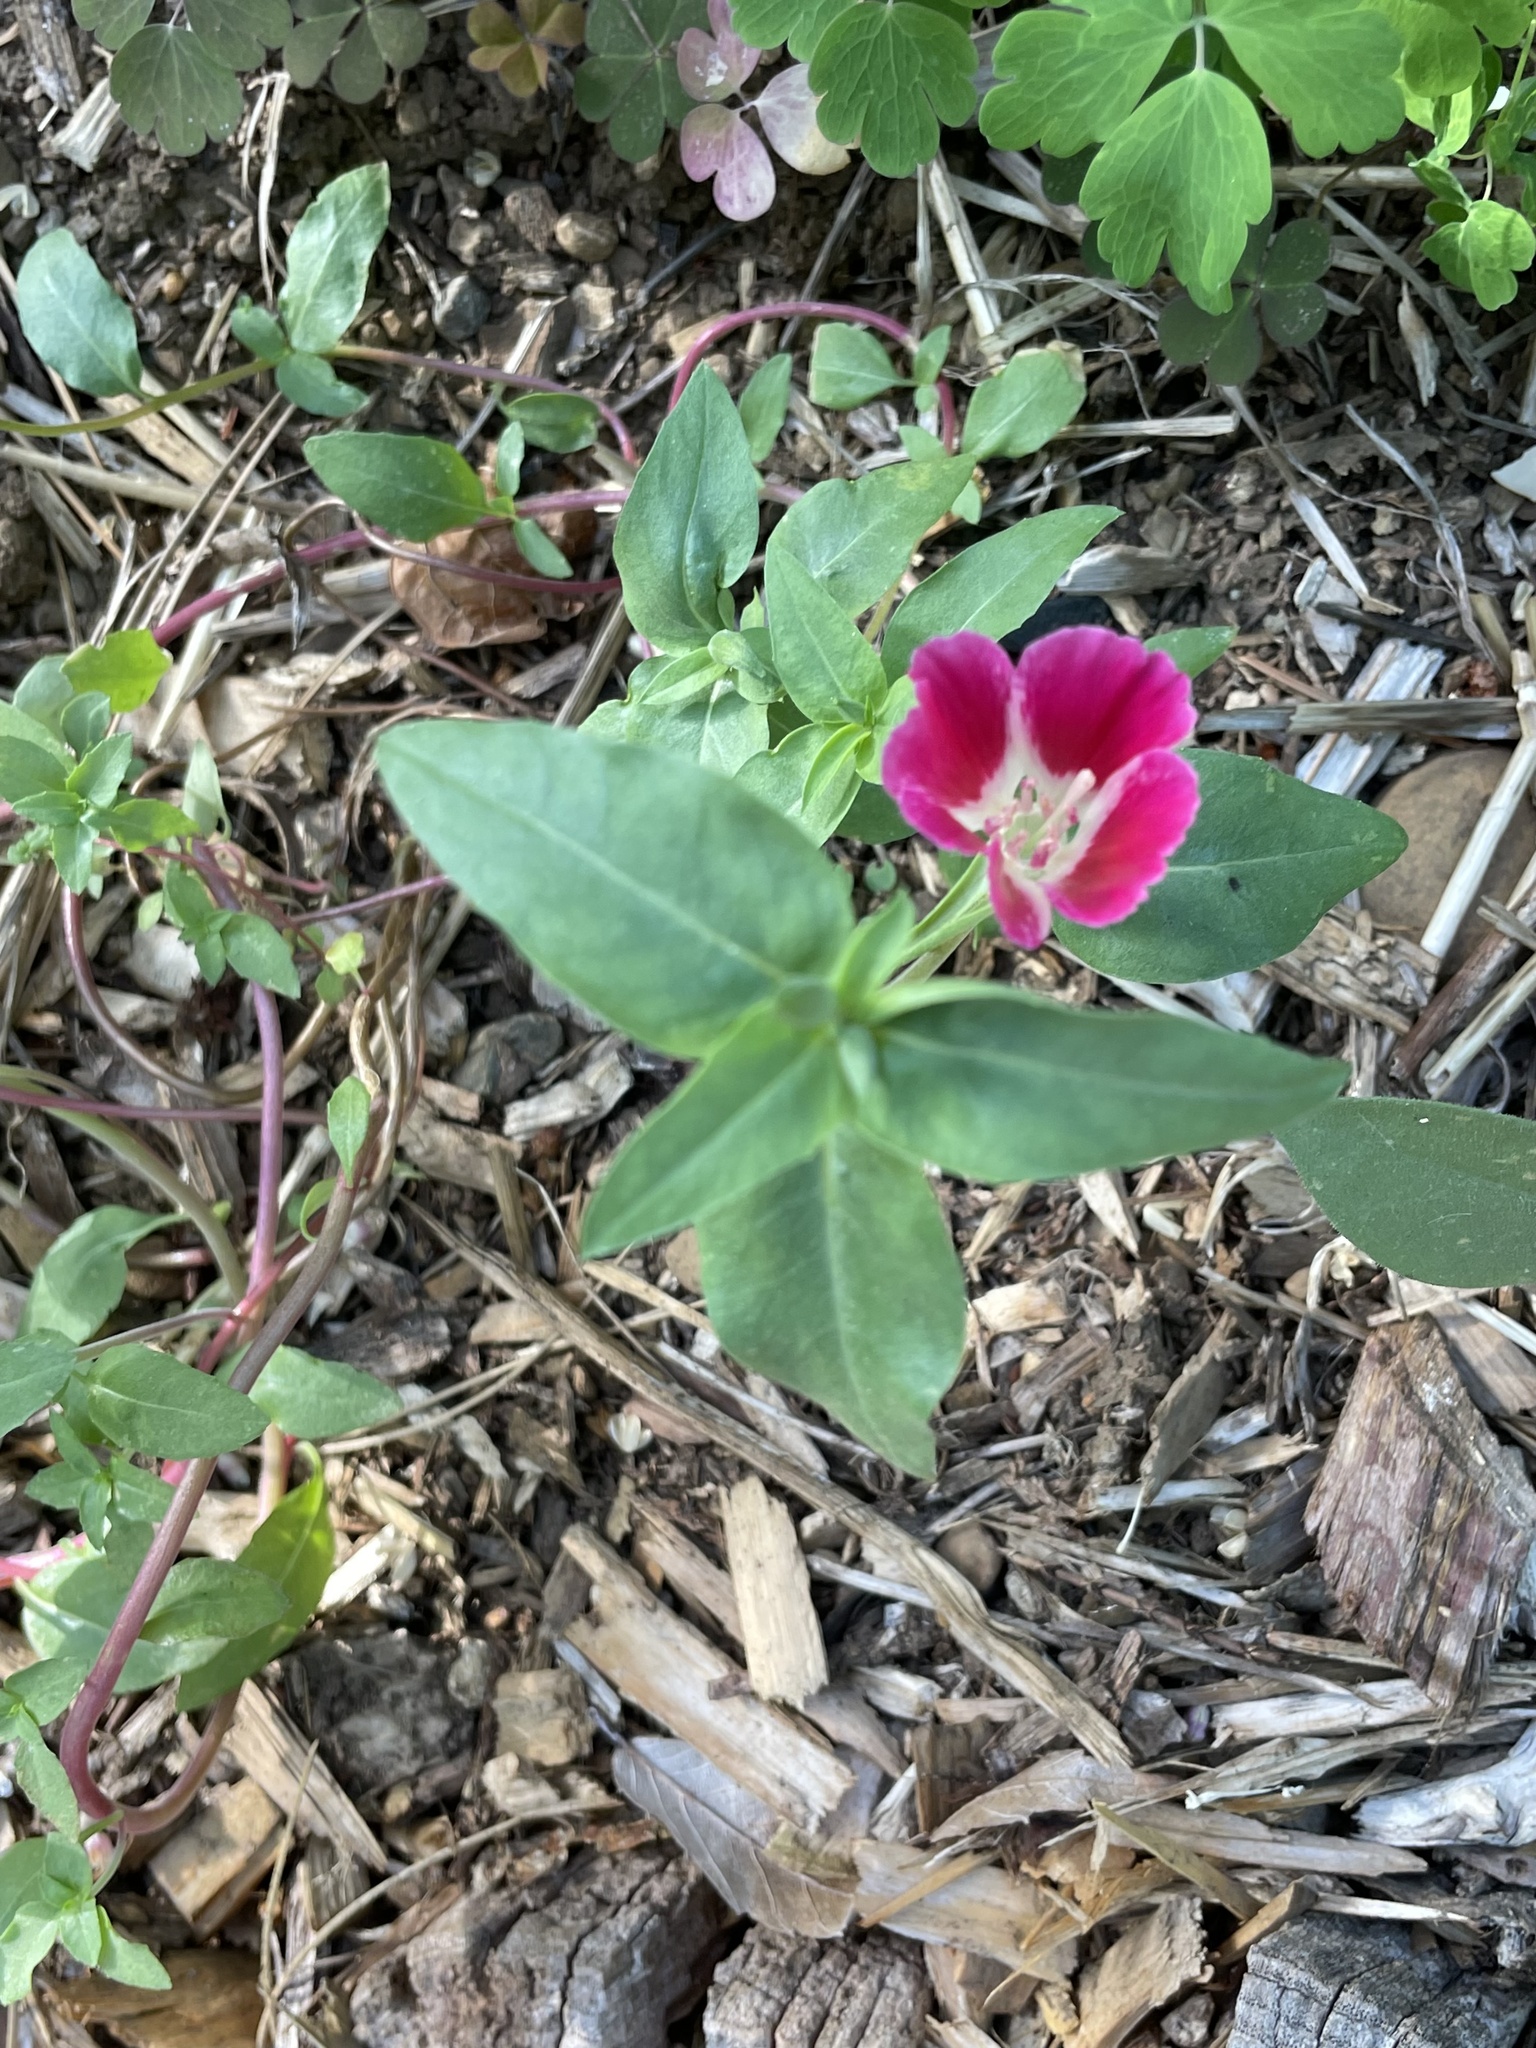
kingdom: Plantae
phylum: Tracheophyta
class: Magnoliopsida
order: Myrtales
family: Onagraceae
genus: Clarkia
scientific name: Clarkia amoena
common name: Godetia
